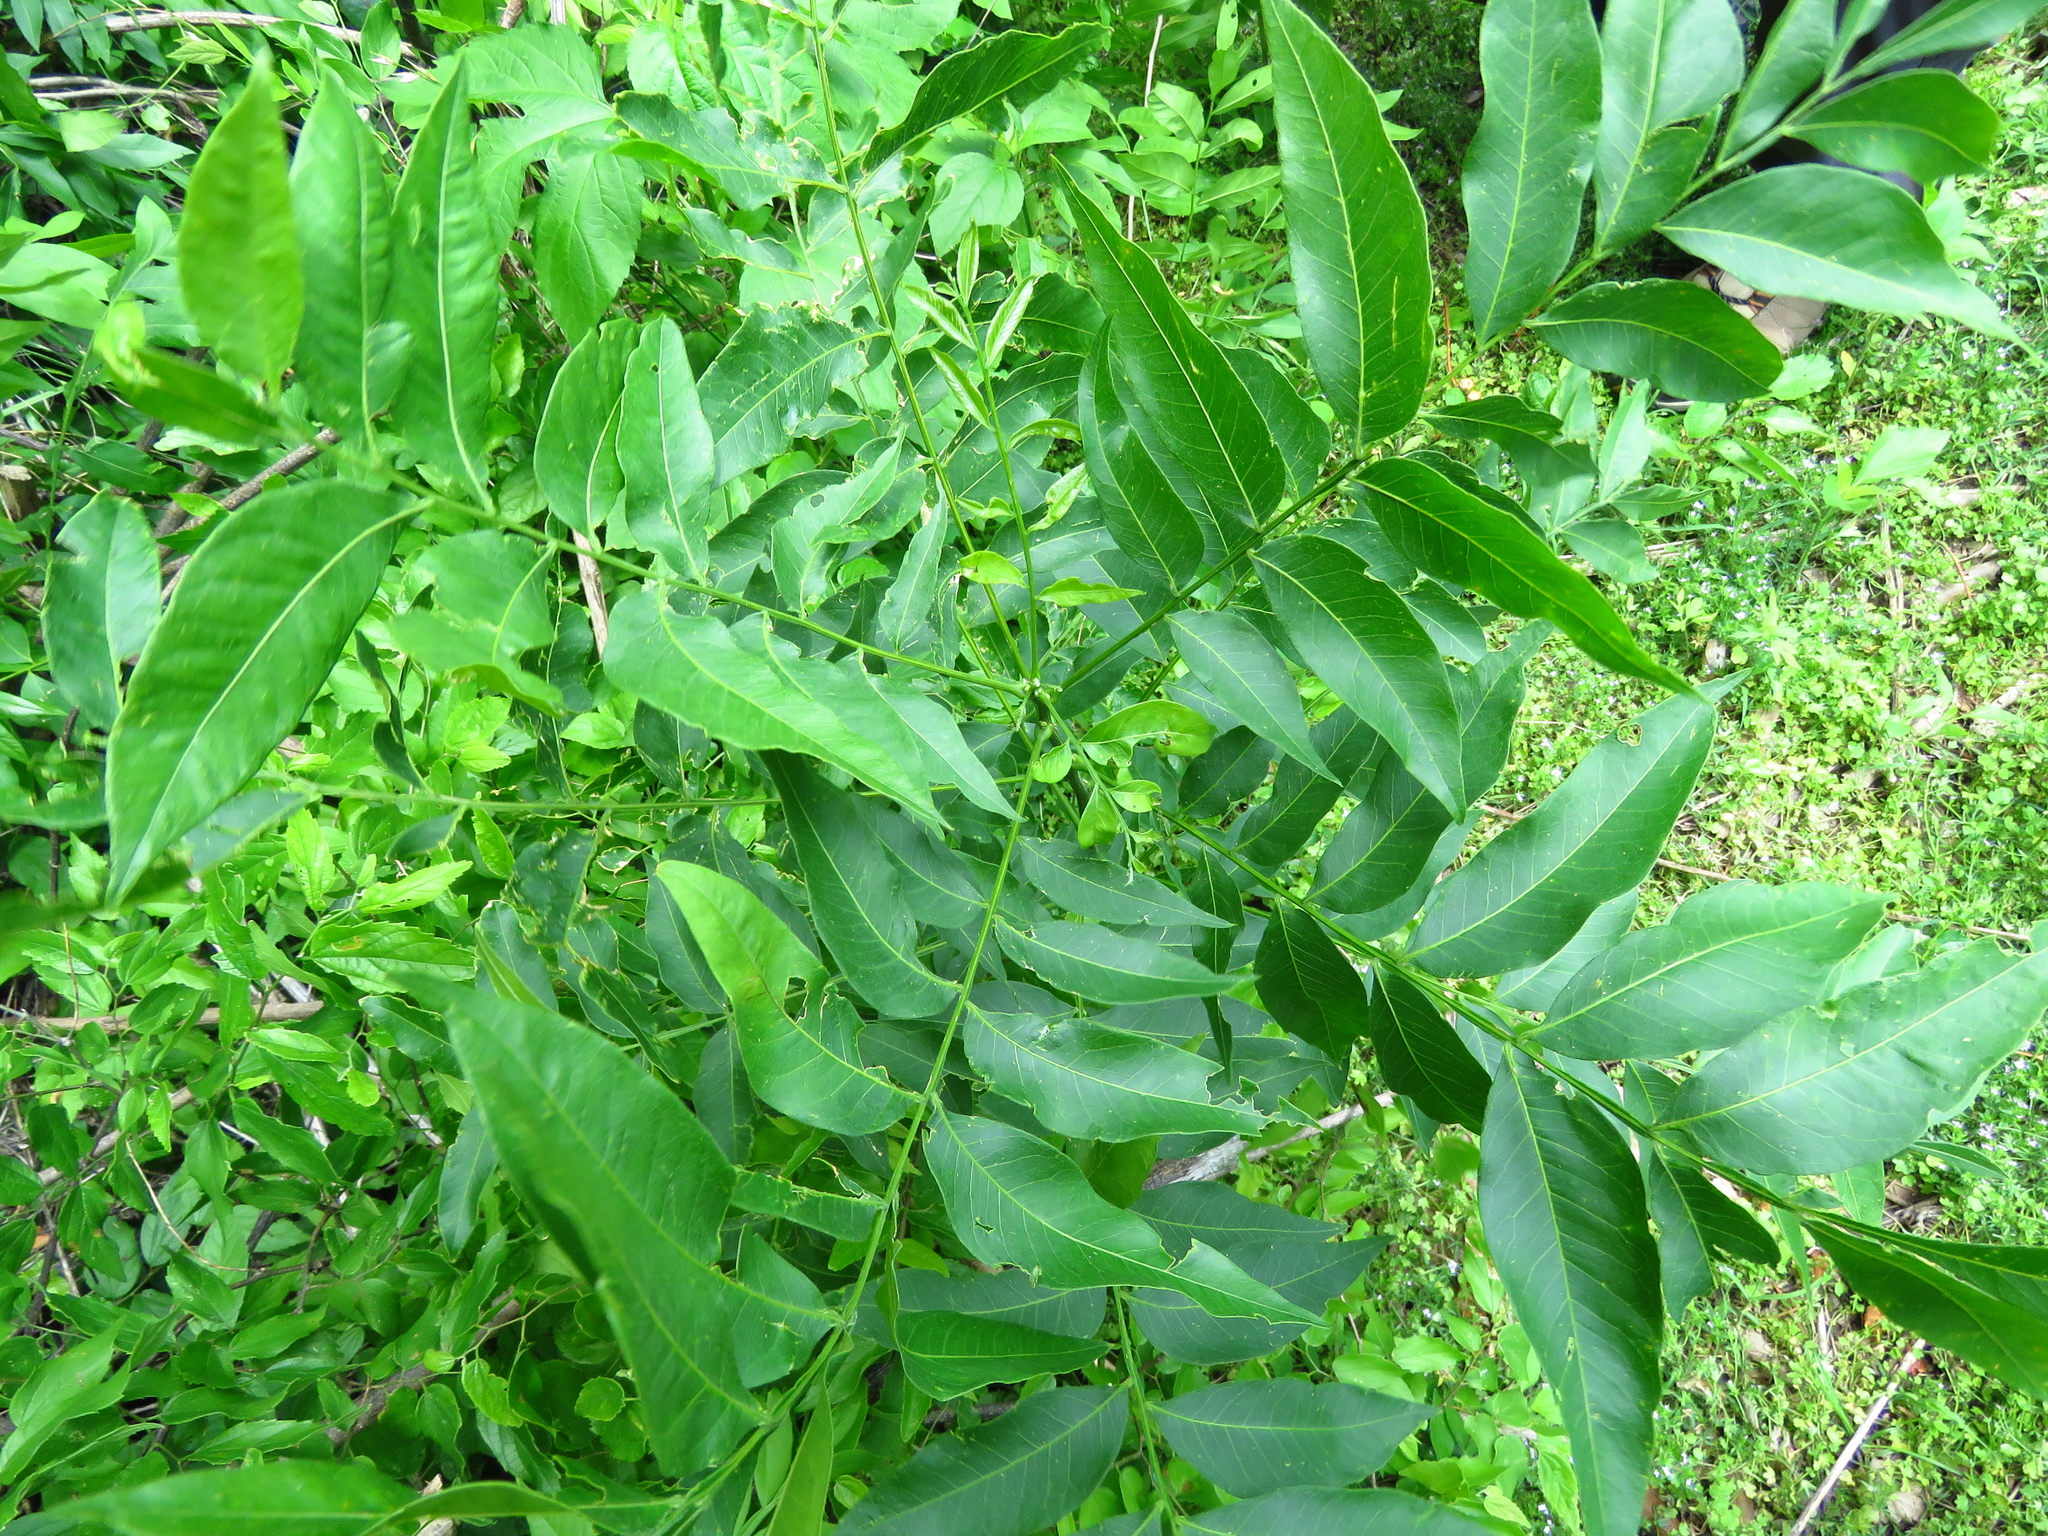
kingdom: Plantae
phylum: Tracheophyta
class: Magnoliopsida
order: Sapindales
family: Sapindaceae
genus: Sapindus
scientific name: Sapindus drummondii
